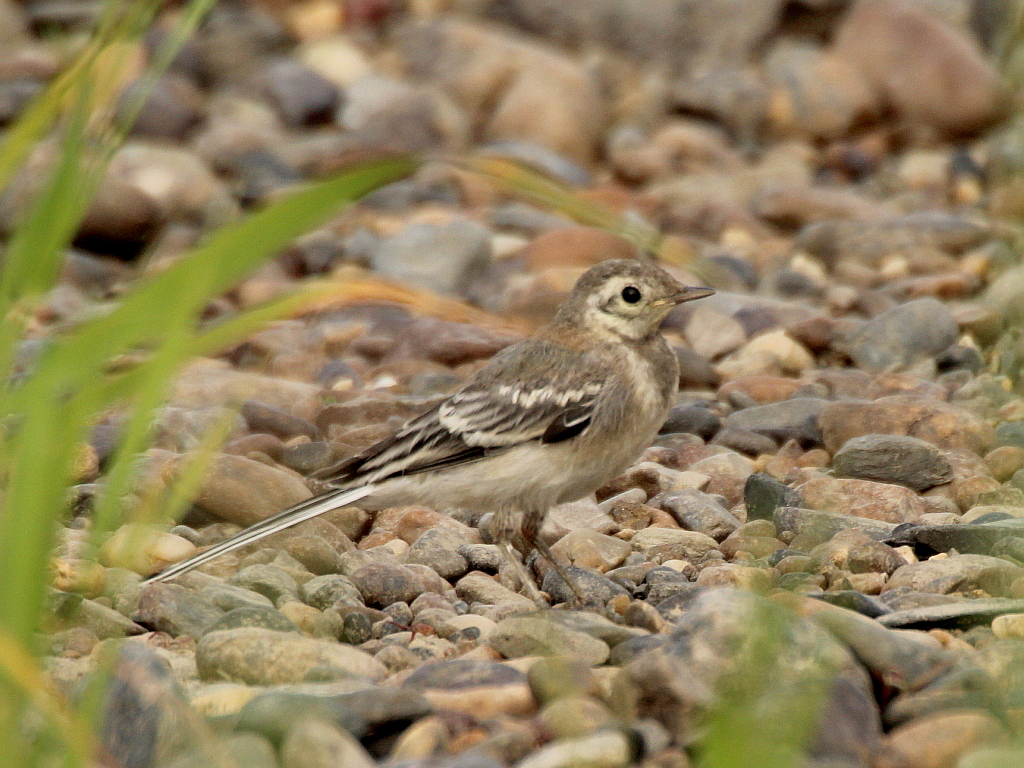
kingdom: Animalia
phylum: Chordata
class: Aves
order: Passeriformes
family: Motacillidae
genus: Motacilla
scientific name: Motacilla alba
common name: White wagtail
